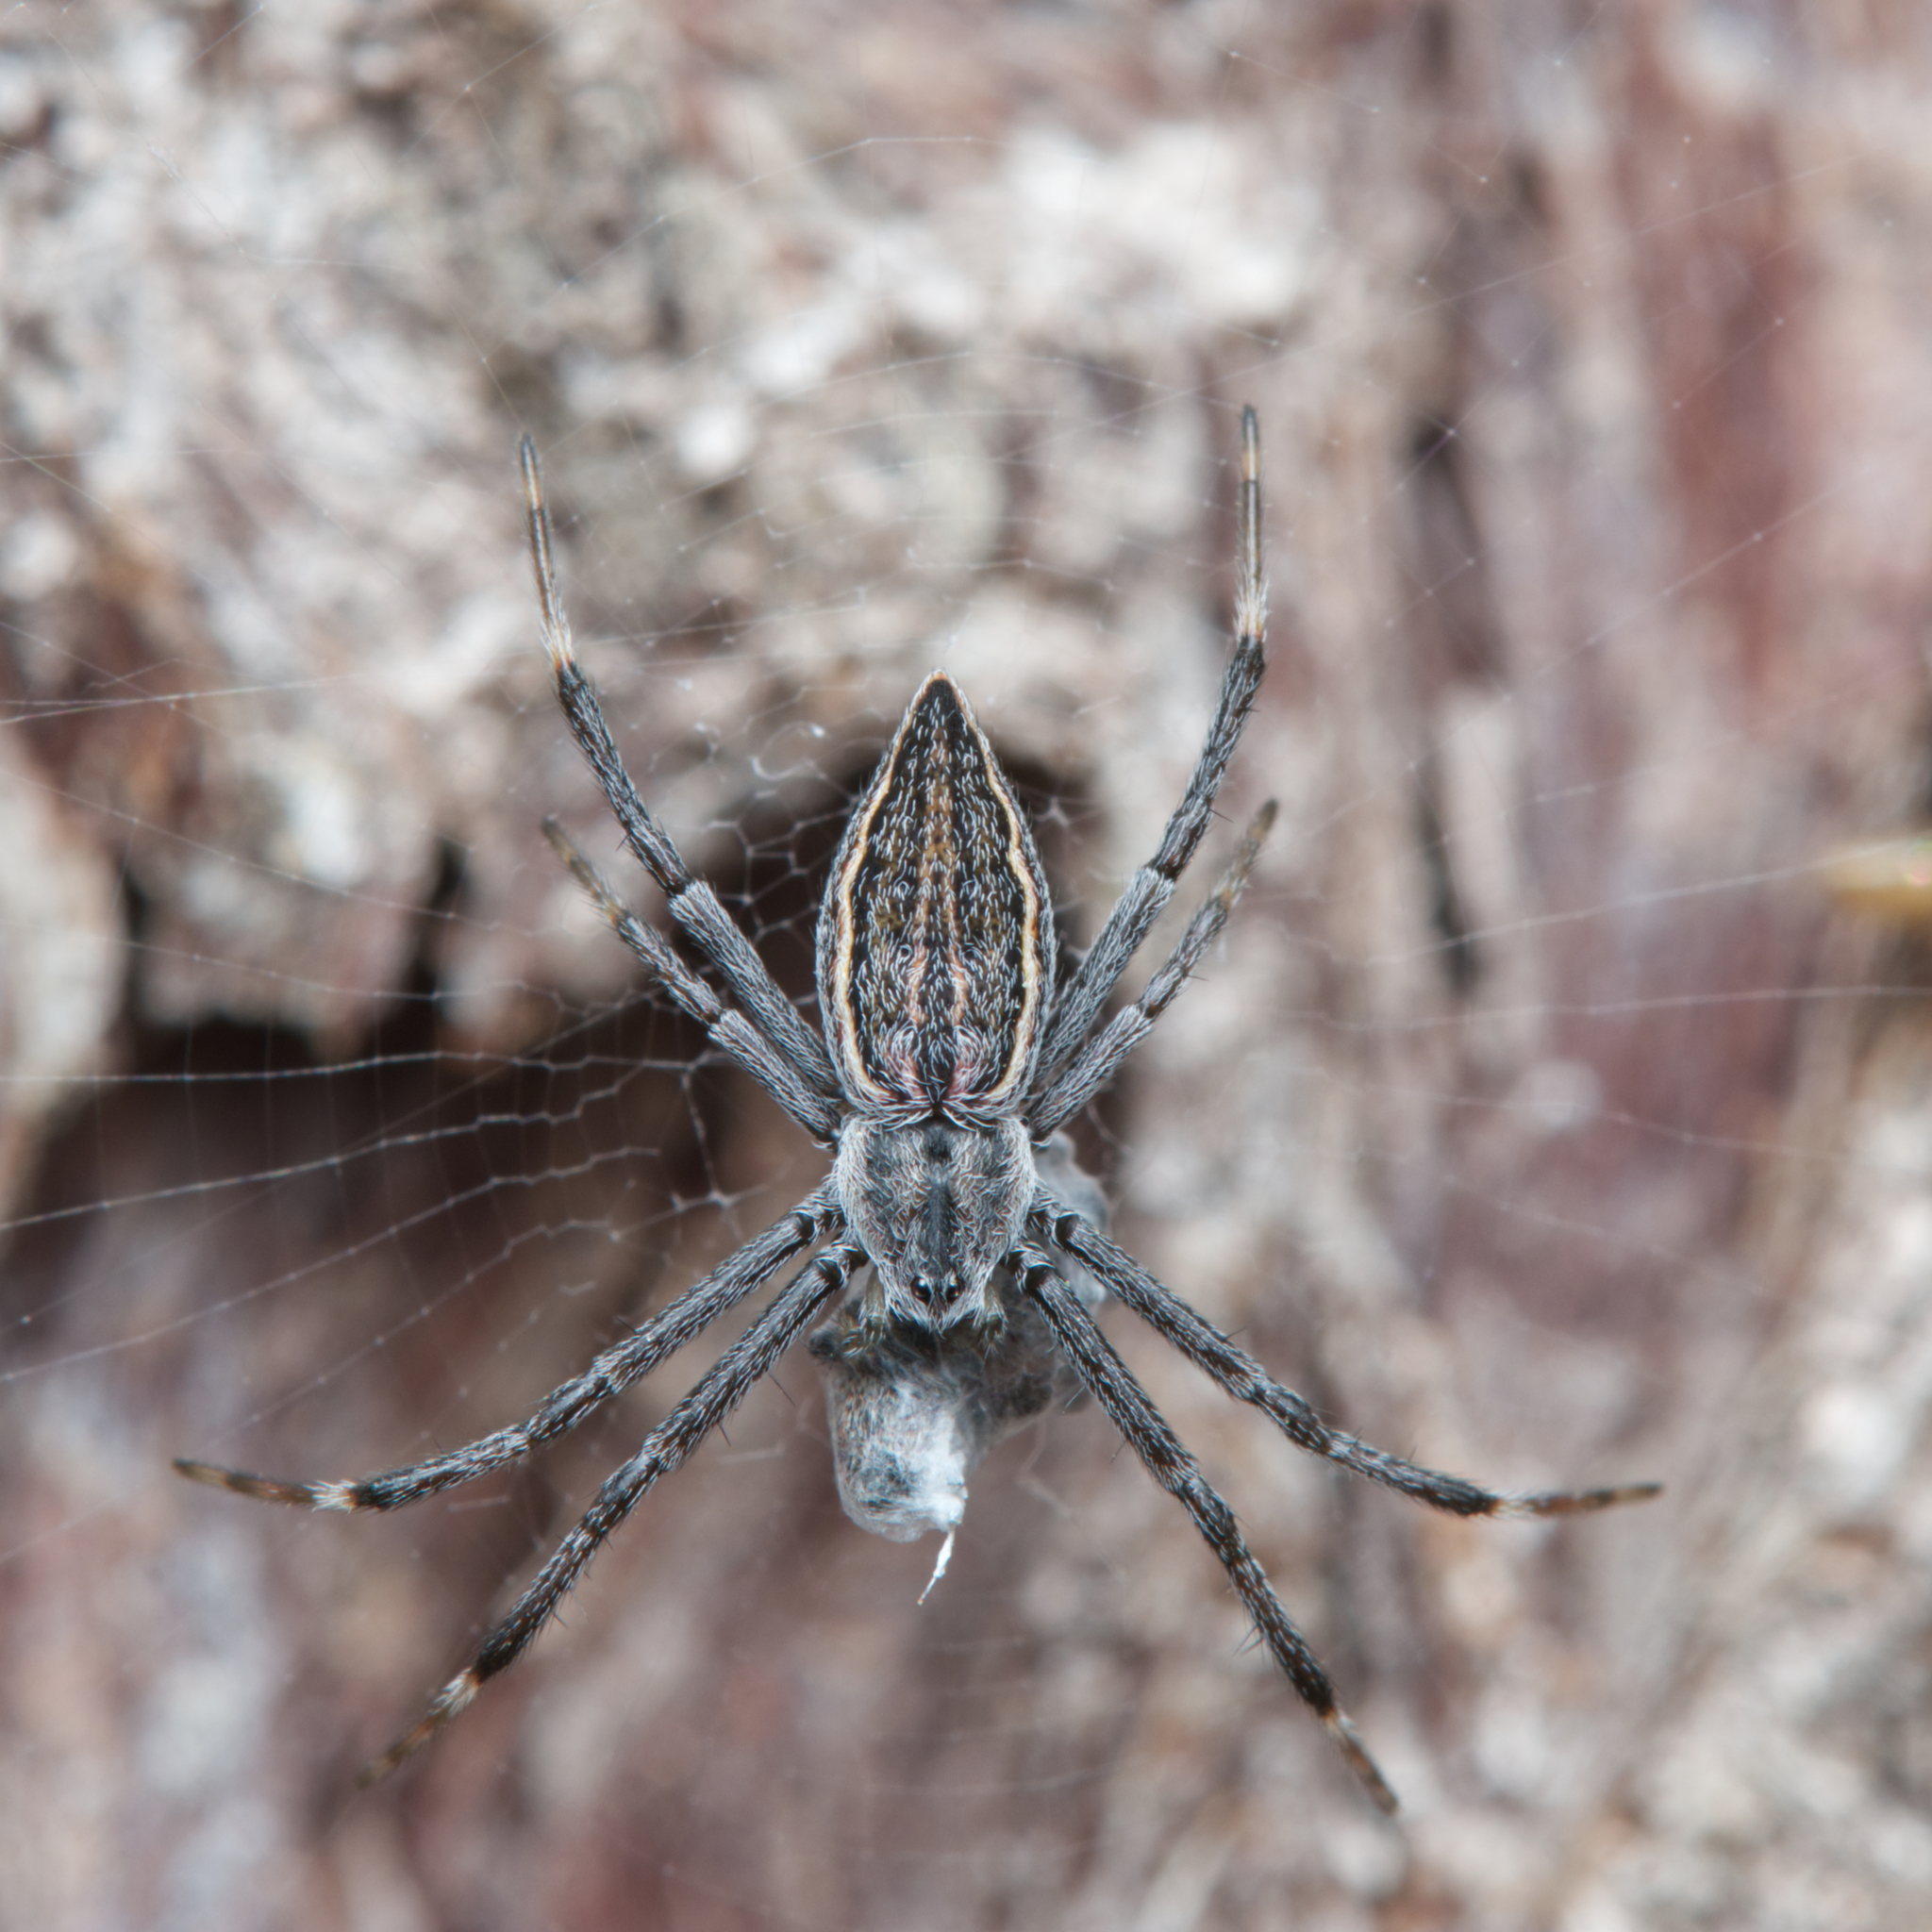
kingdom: Animalia
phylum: Arthropoda
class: Arachnida
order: Araneae
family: Araneidae
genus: Argiope
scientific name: Argiope ocyaloides
